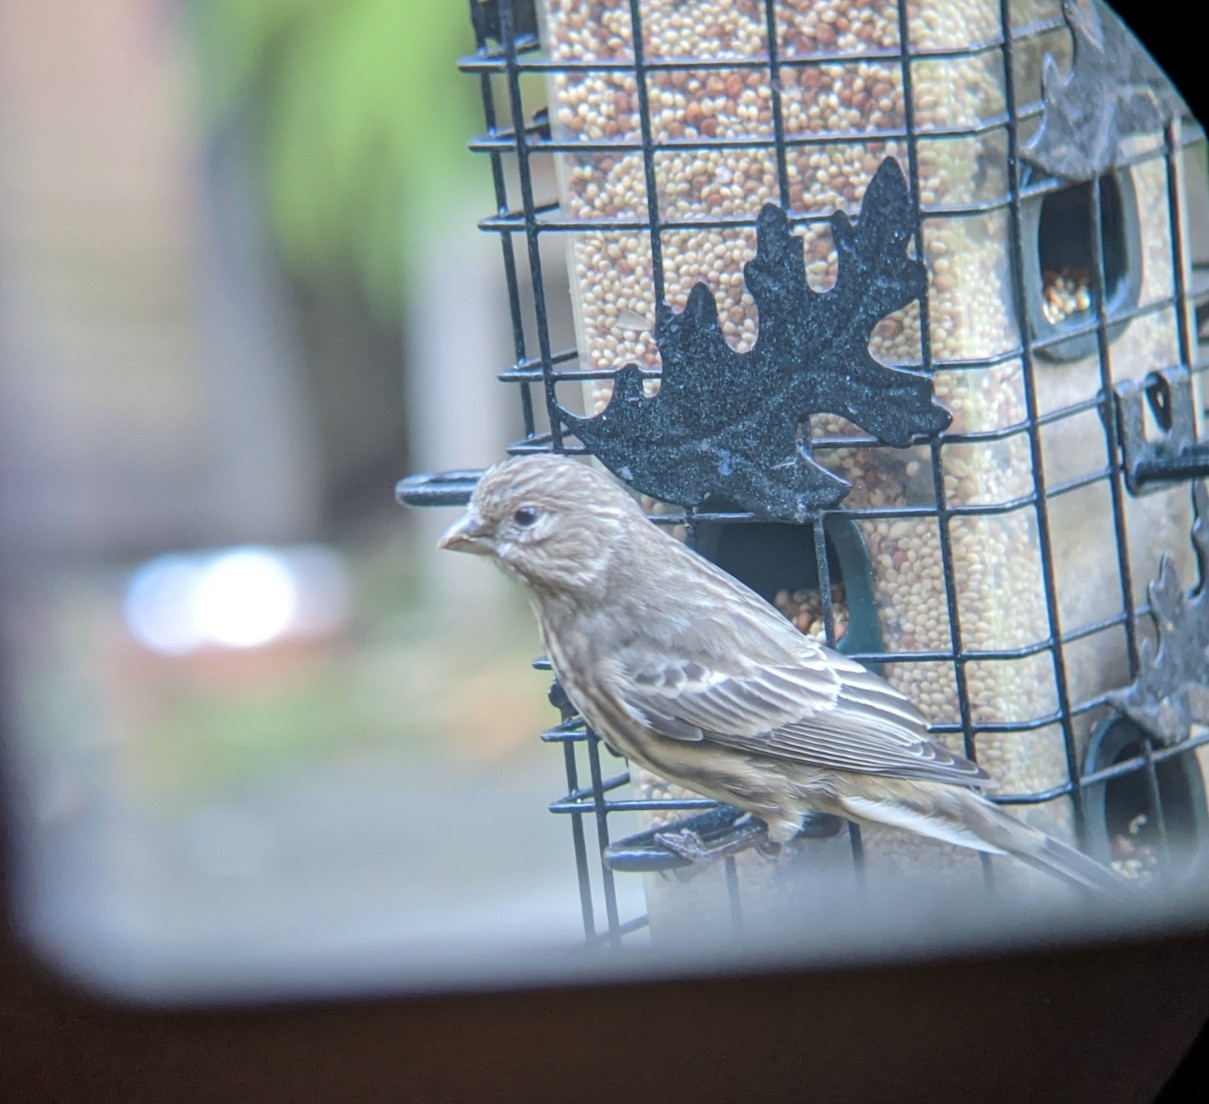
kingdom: Animalia
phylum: Chordata
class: Aves
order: Passeriformes
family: Fringillidae
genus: Haemorhous
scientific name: Haemorhous mexicanus
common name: House finch
